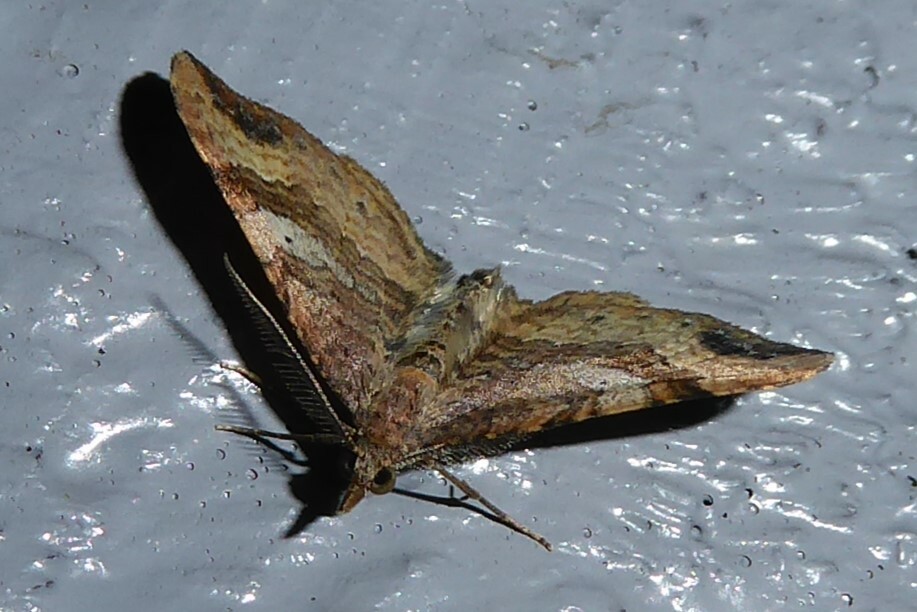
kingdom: Animalia
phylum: Arthropoda
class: Insecta
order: Lepidoptera
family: Geometridae
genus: Homodotis
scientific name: Homodotis megaspilata
